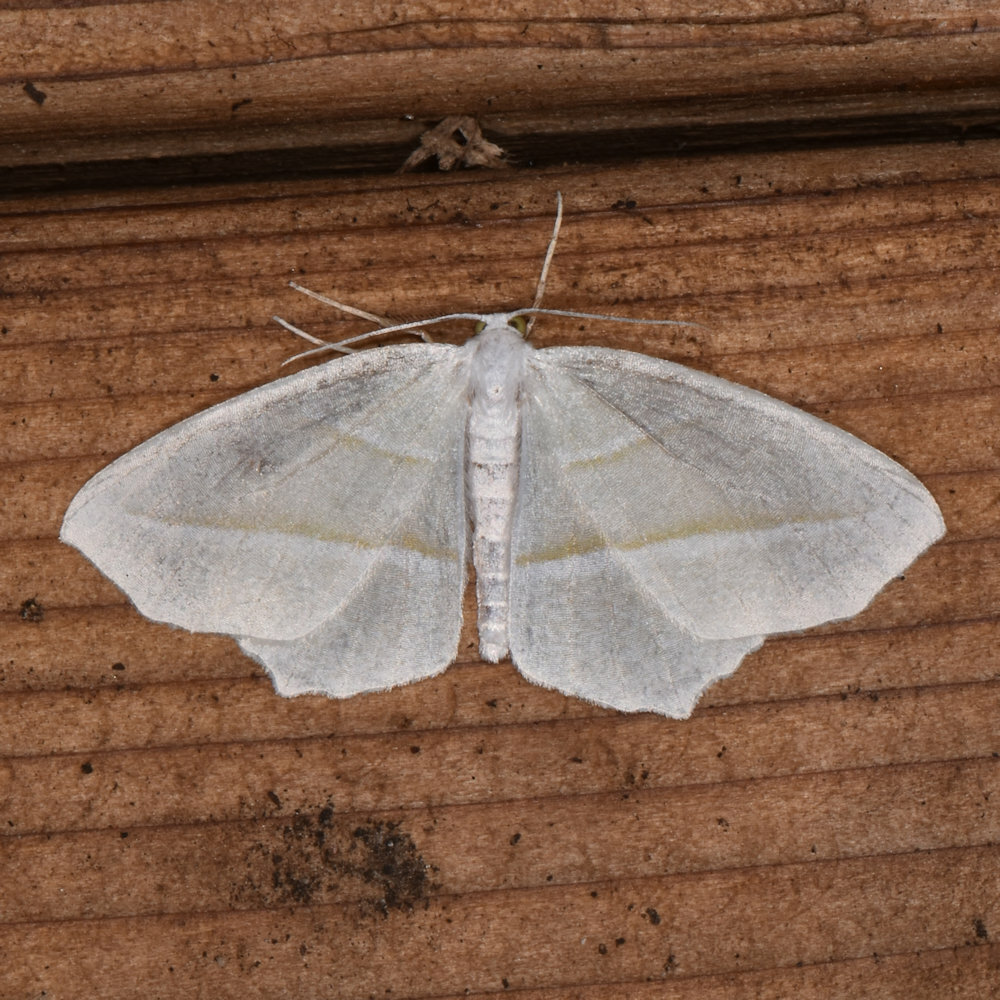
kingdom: Animalia
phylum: Arthropoda
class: Insecta
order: Lepidoptera
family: Geometridae
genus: Campaea
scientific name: Campaea perlata
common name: Fringed looper
